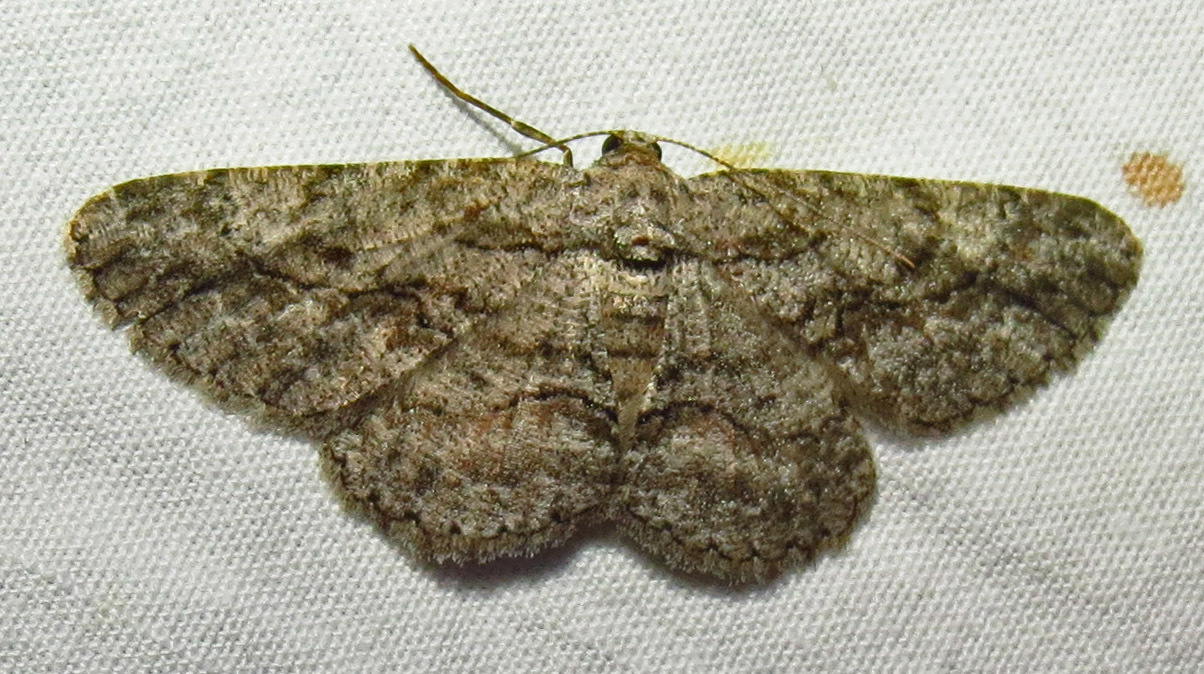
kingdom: Animalia
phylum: Arthropoda
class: Insecta
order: Lepidoptera
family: Geometridae
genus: Anavitrinella
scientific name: Anavitrinella pampinaria
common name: Common gray
